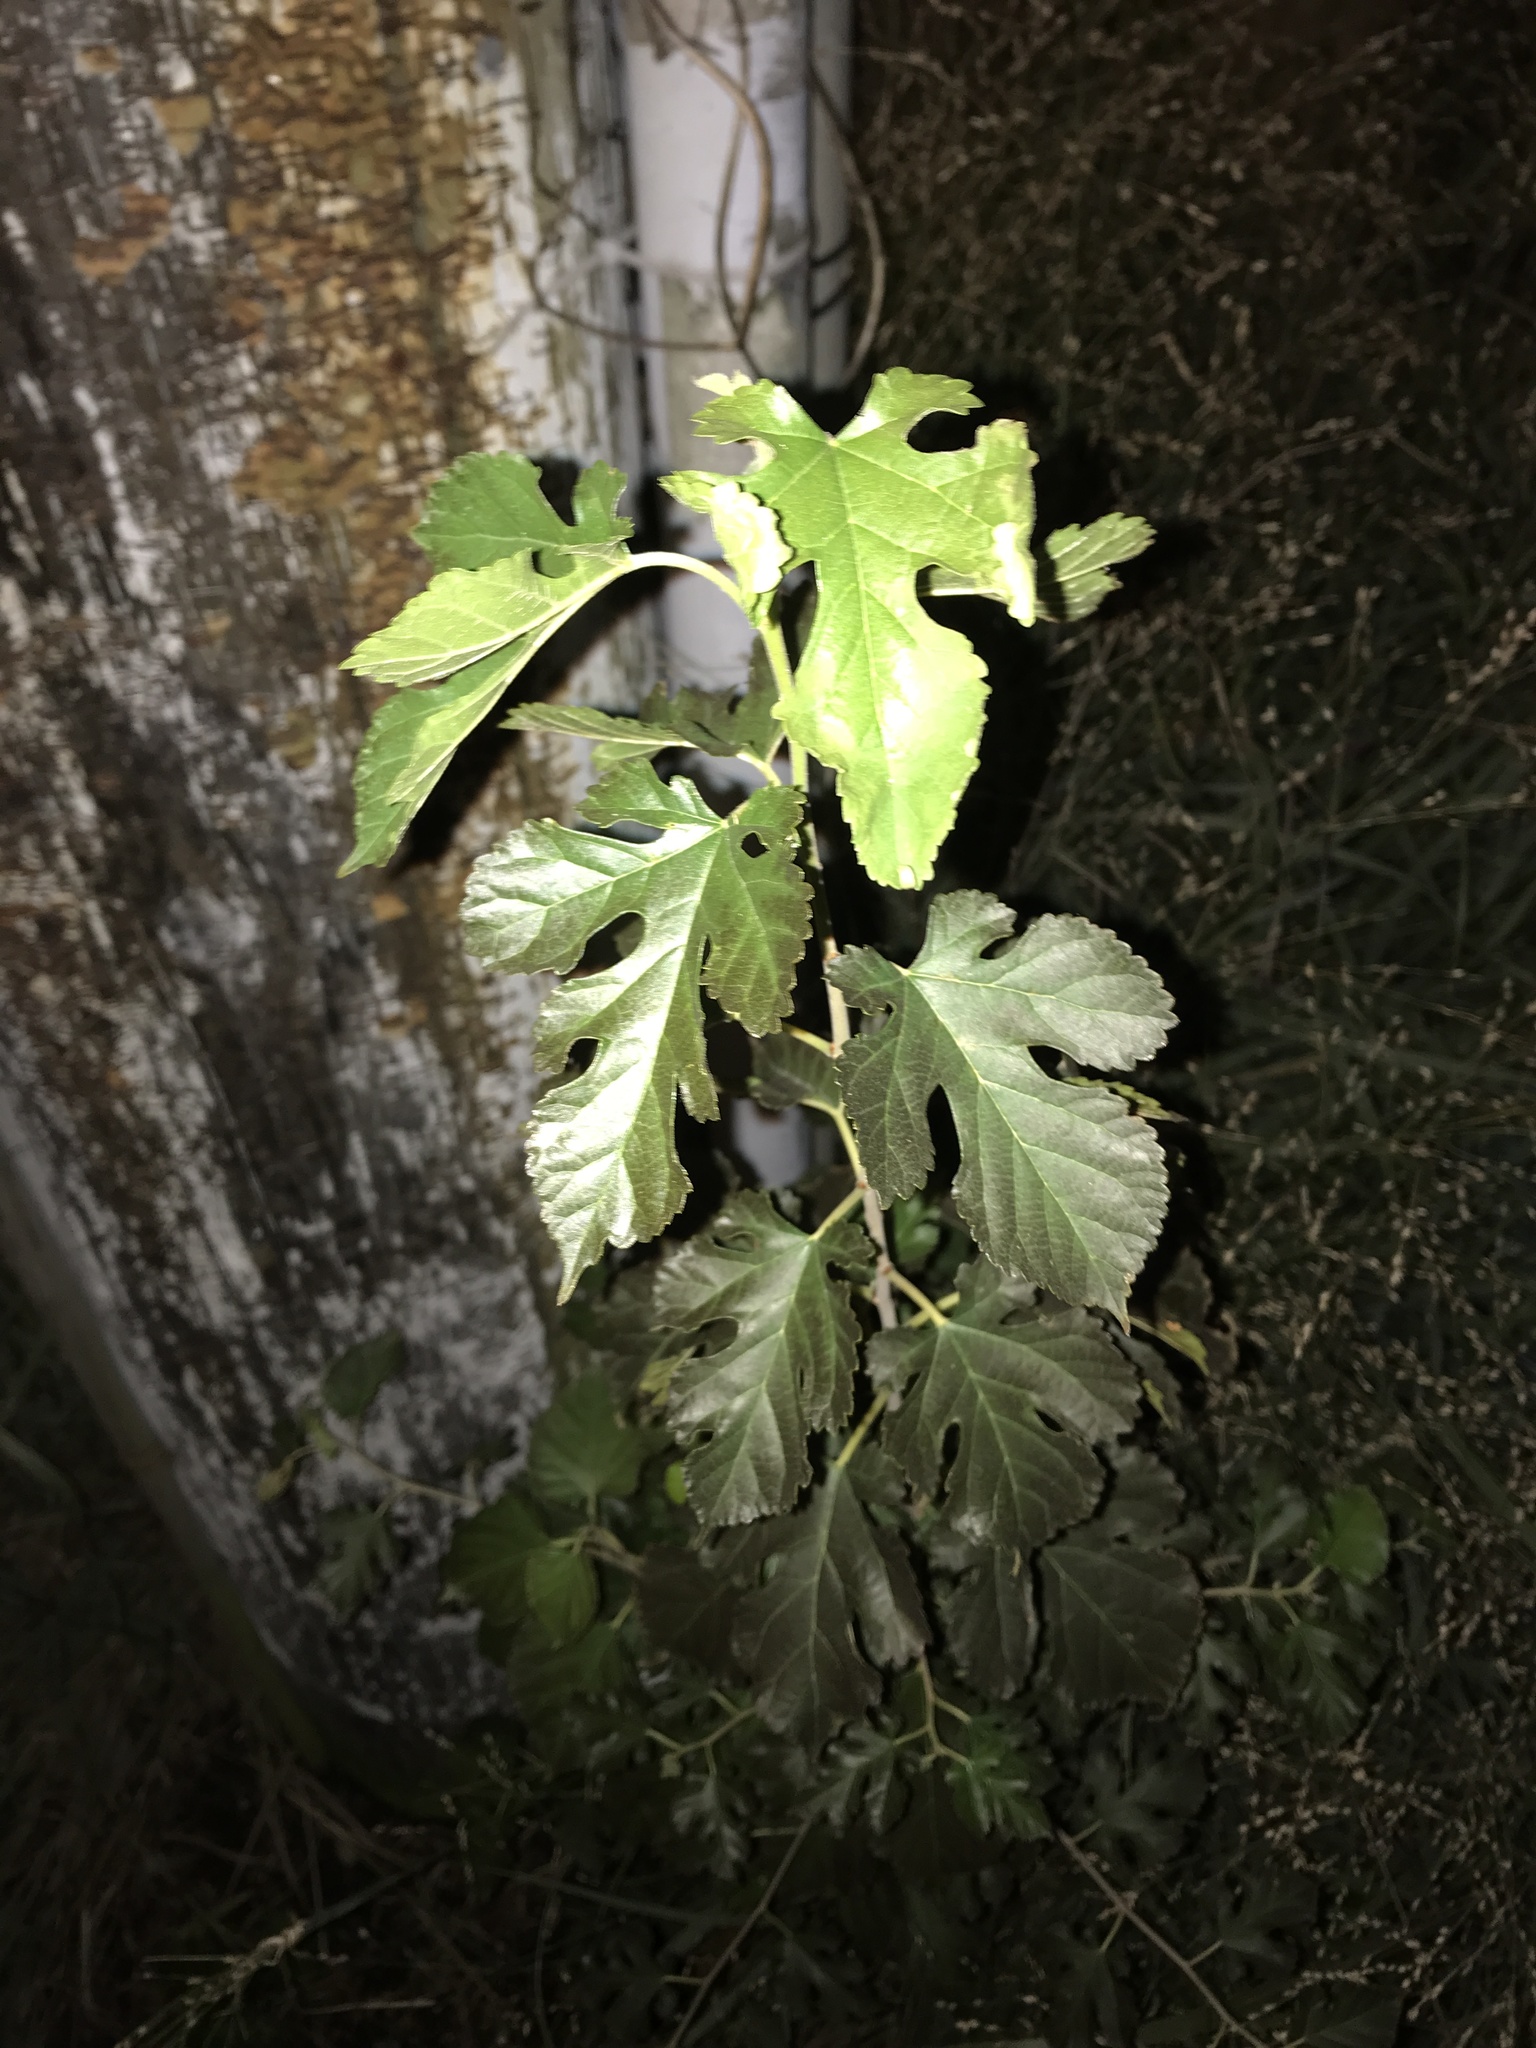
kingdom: Plantae
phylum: Tracheophyta
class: Magnoliopsida
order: Rosales
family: Moraceae
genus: Morus
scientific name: Morus alba
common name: White mulberry
